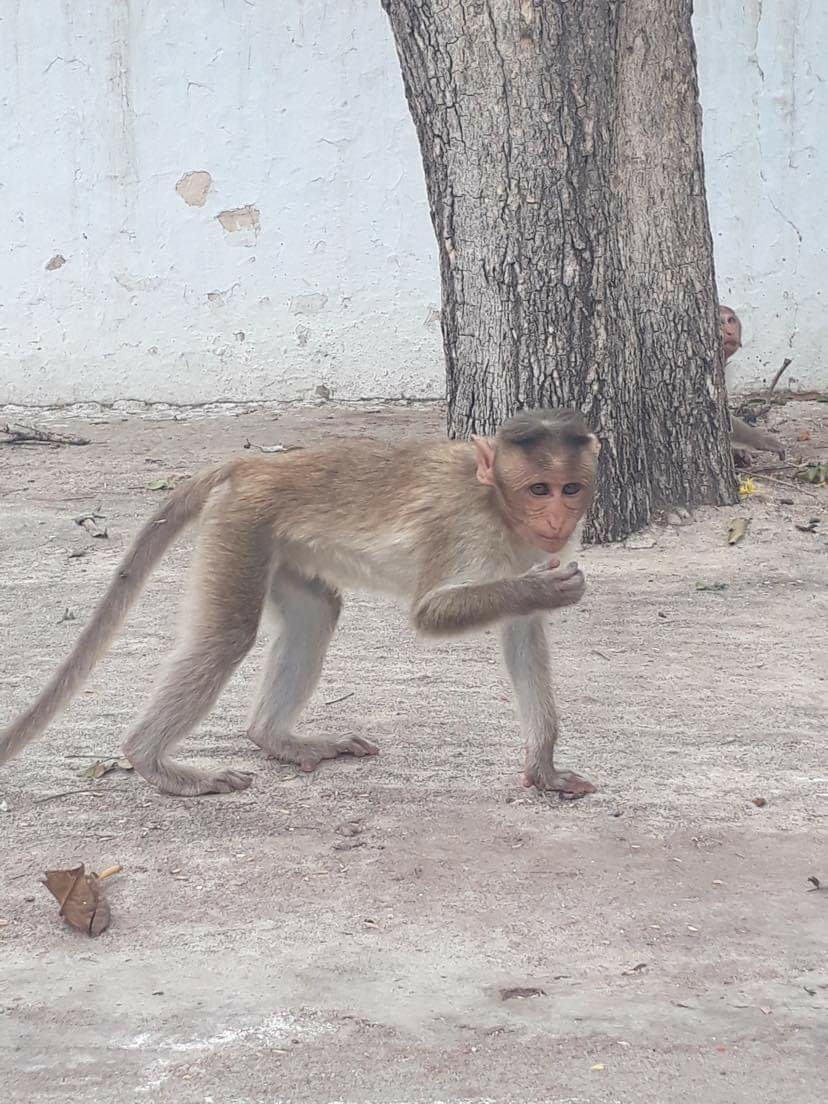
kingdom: Animalia
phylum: Chordata
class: Mammalia
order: Primates
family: Cercopithecidae
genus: Macaca
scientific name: Macaca radiata
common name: Bonnet macaque
